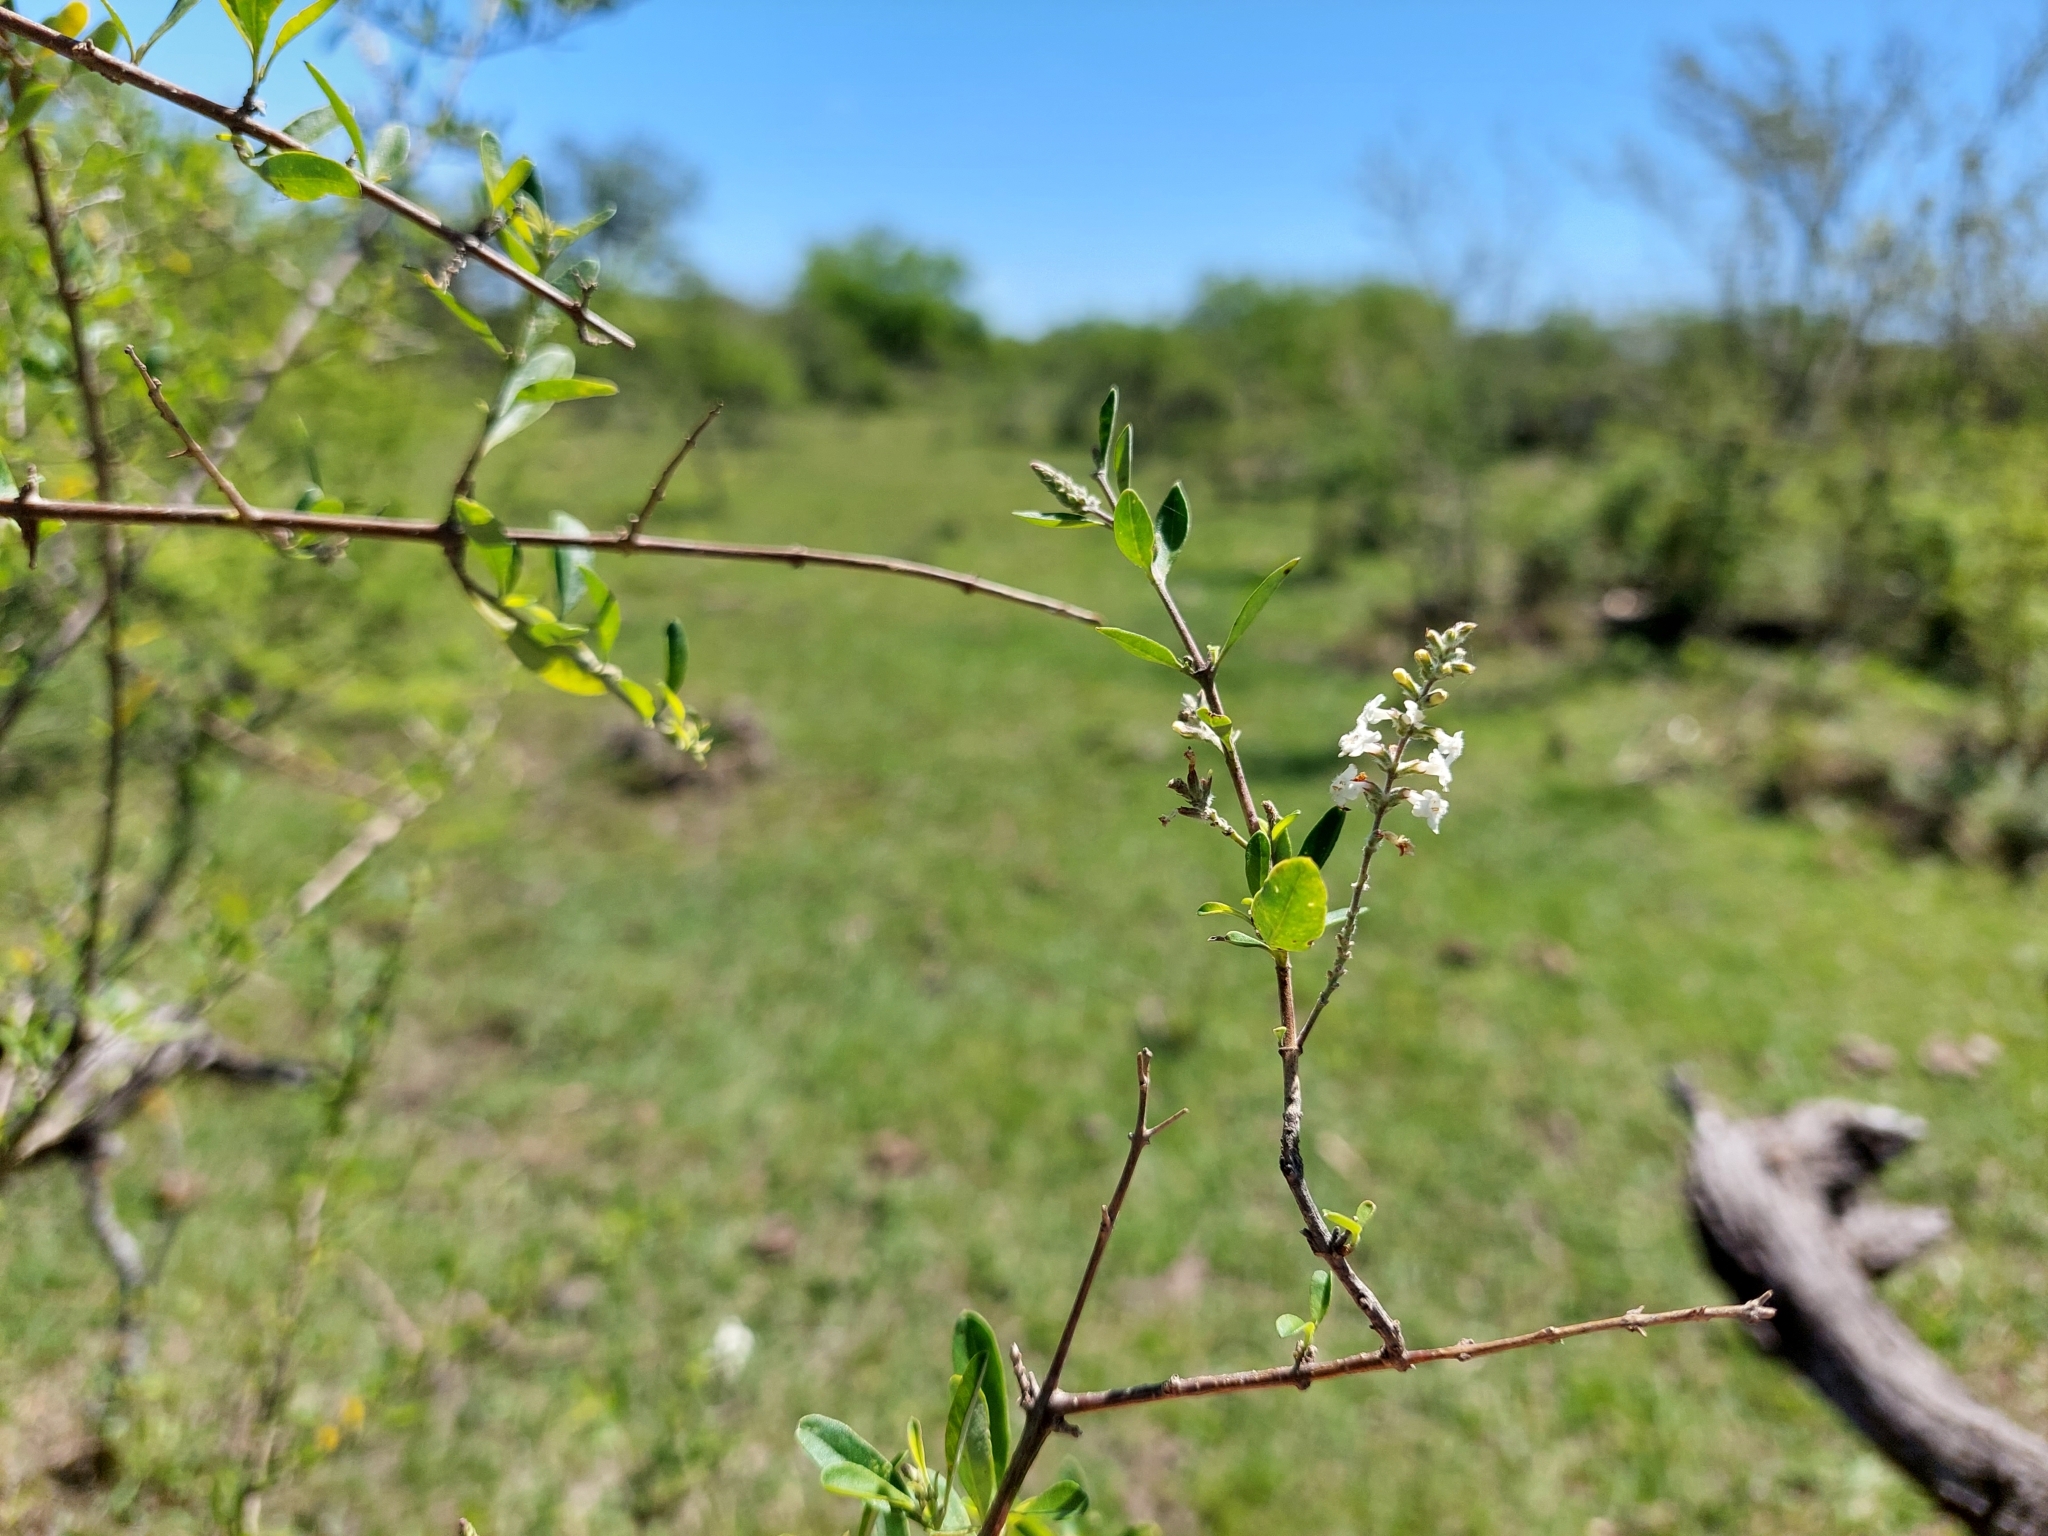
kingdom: Plantae
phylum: Tracheophyta
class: Magnoliopsida
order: Lamiales
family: Verbenaceae
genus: Aloysia
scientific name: Aloysia gratissima
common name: Common bee-brush
